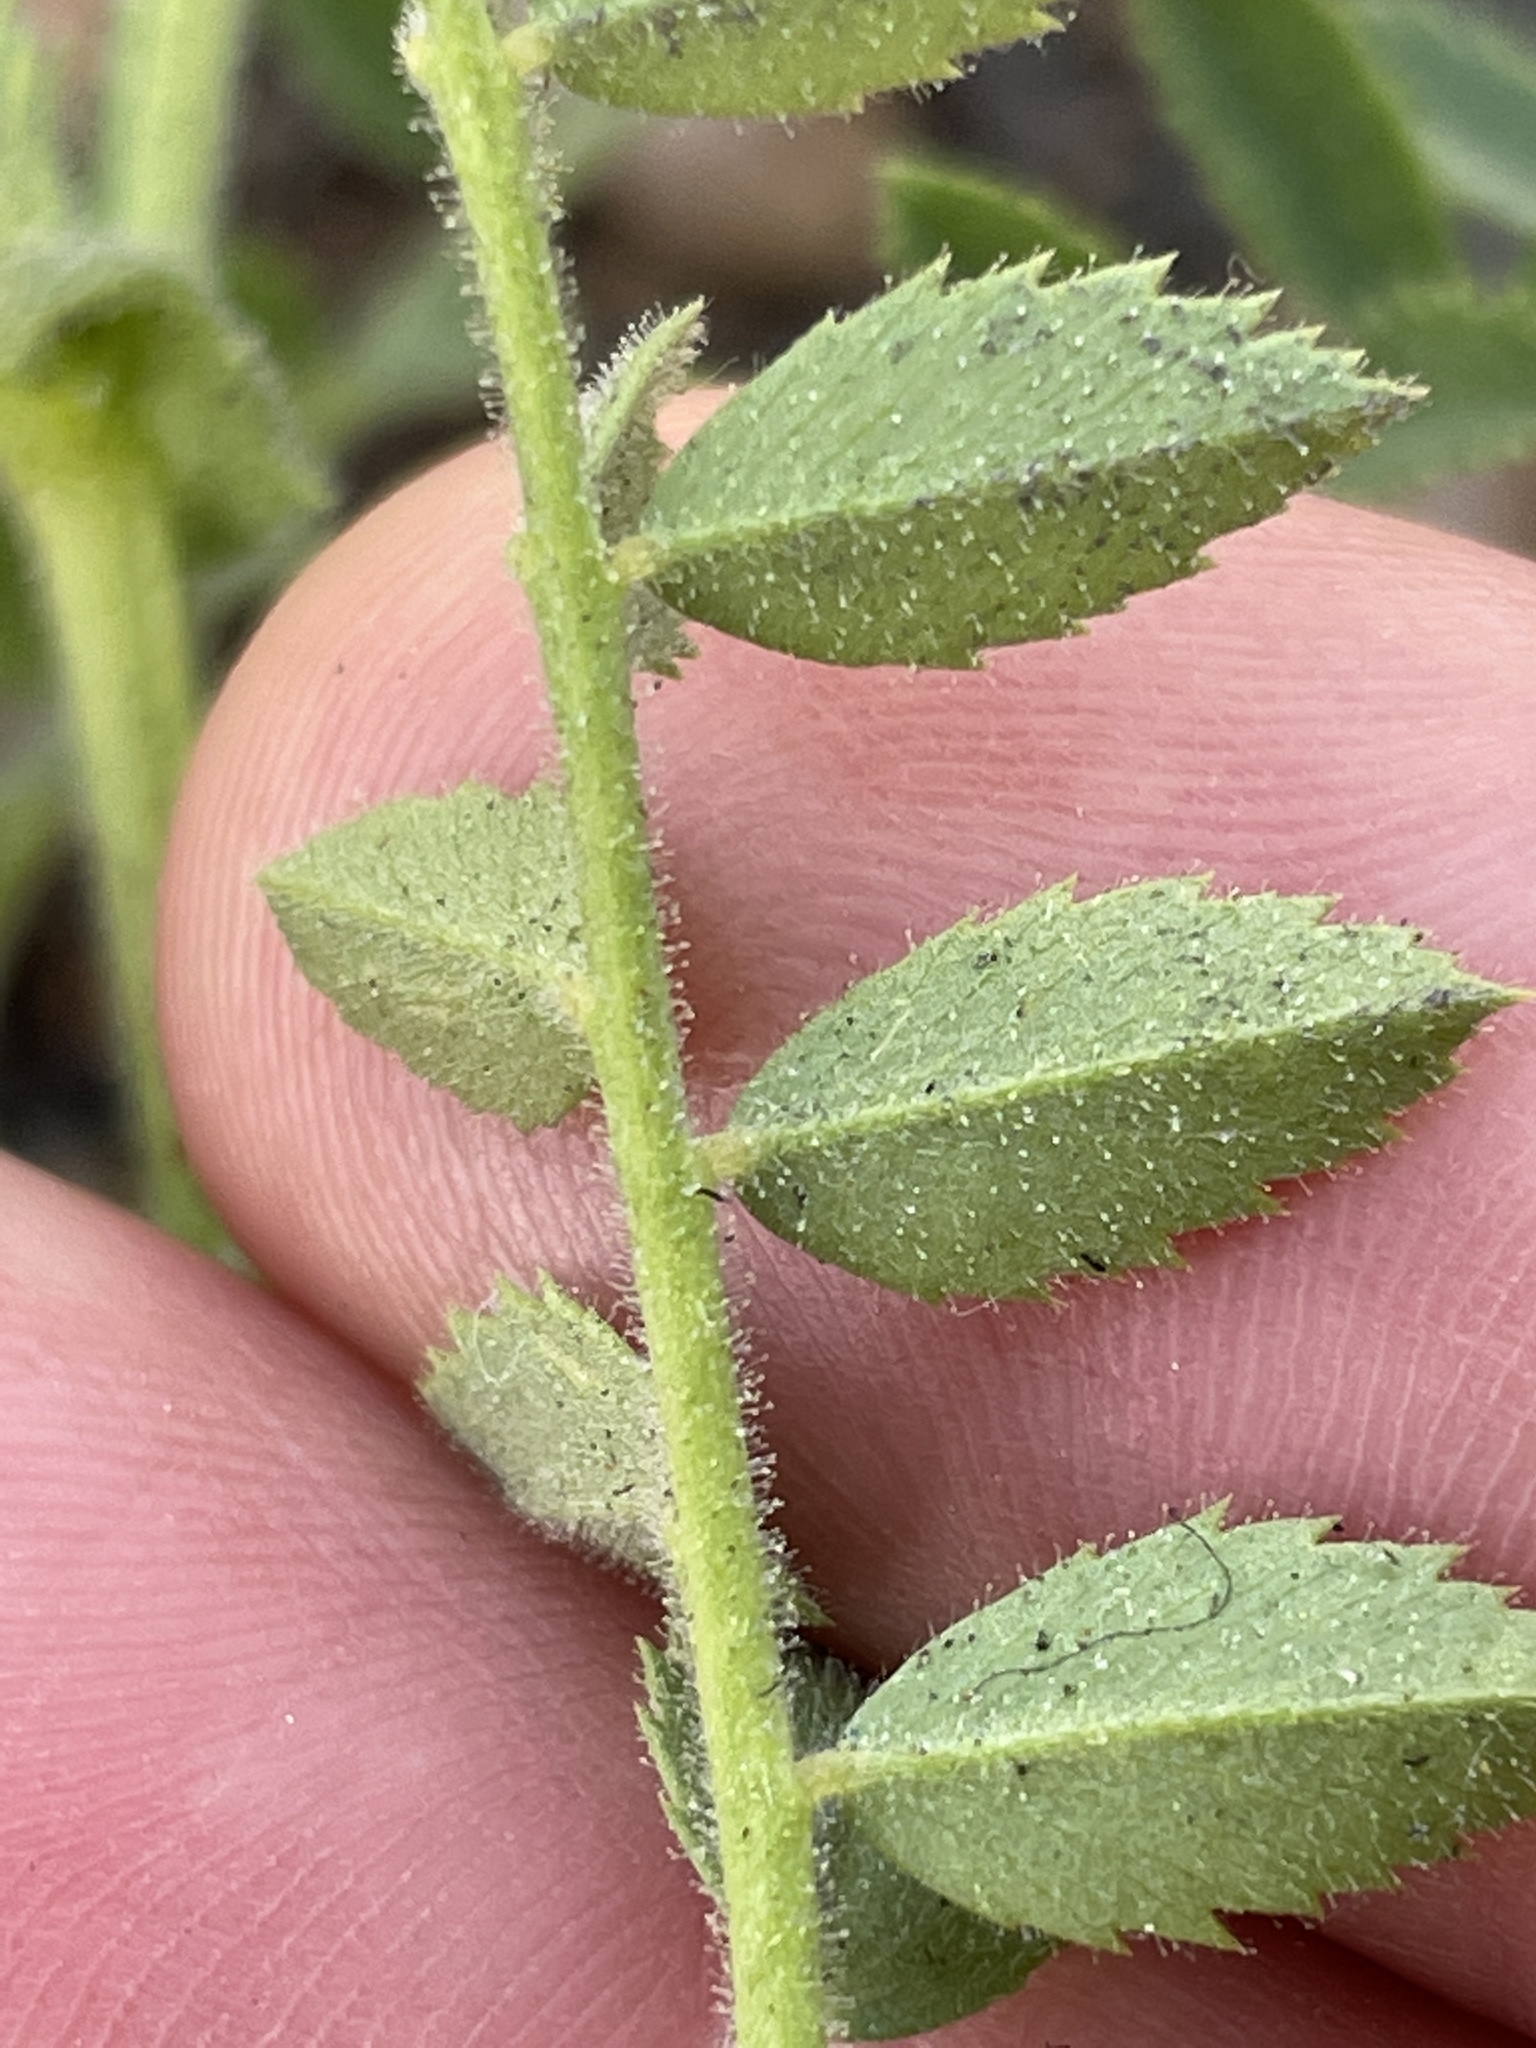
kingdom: Plantae
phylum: Tracheophyta
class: Magnoliopsida
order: Zygophyllales
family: Zygophyllaceae
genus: Tribulus
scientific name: Tribulus terrestris
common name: Puncturevine
